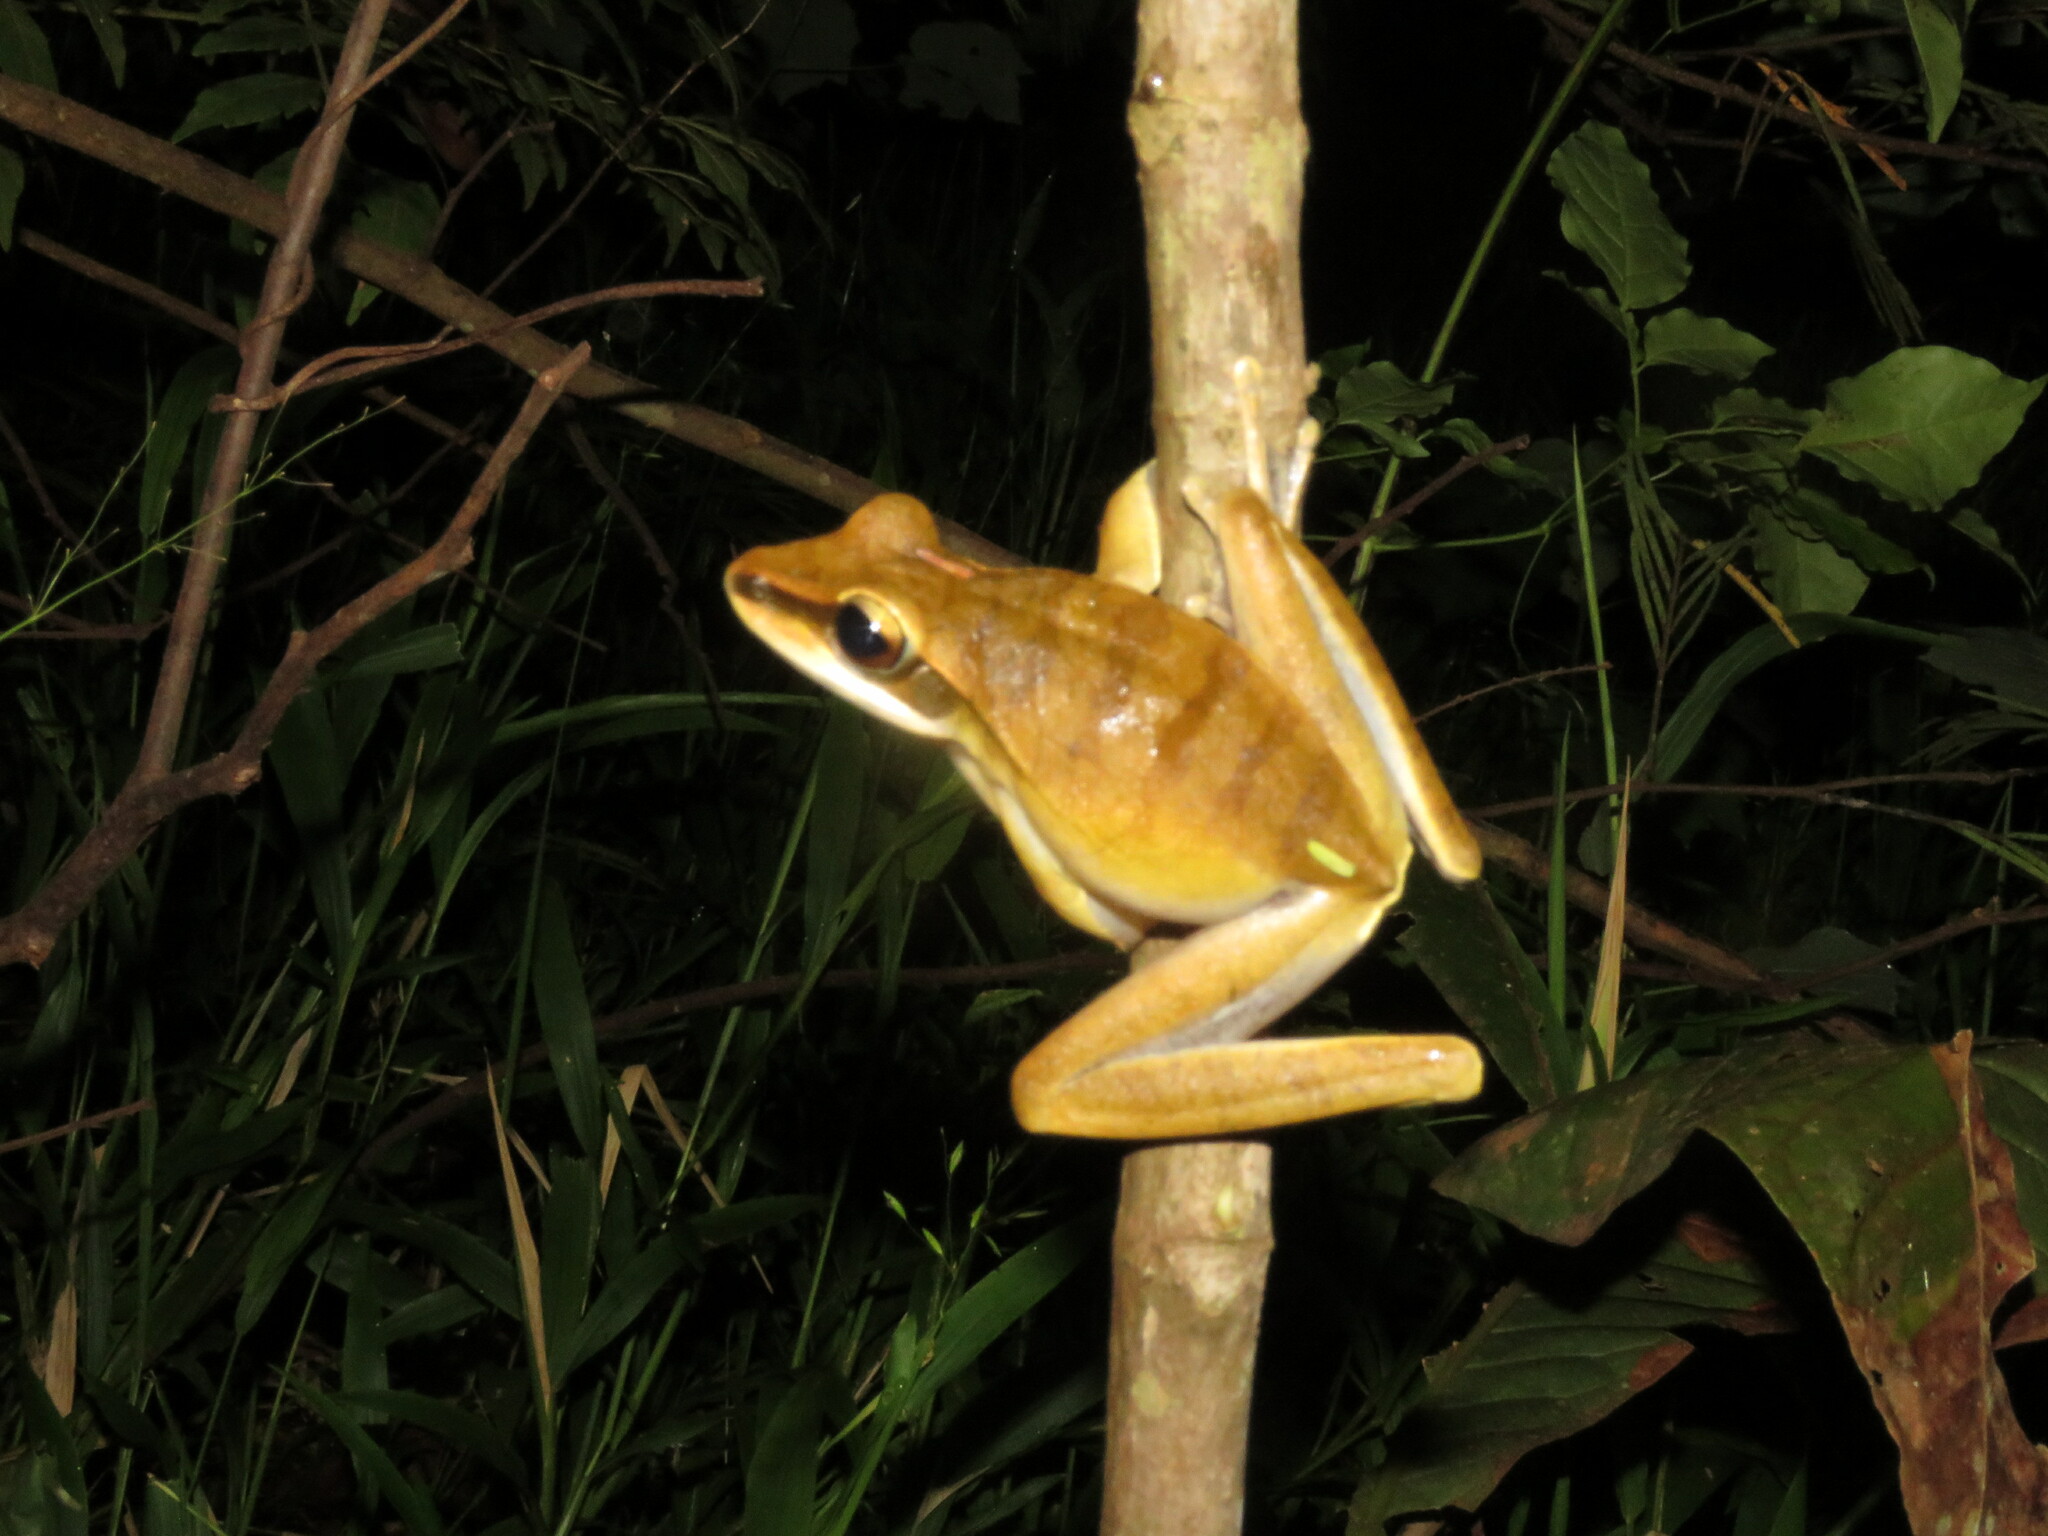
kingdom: Animalia
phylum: Chordata
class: Amphibia
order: Anura
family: Hylidae
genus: Boana
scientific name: Boana lanciformis
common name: Rana lanceolada commún
